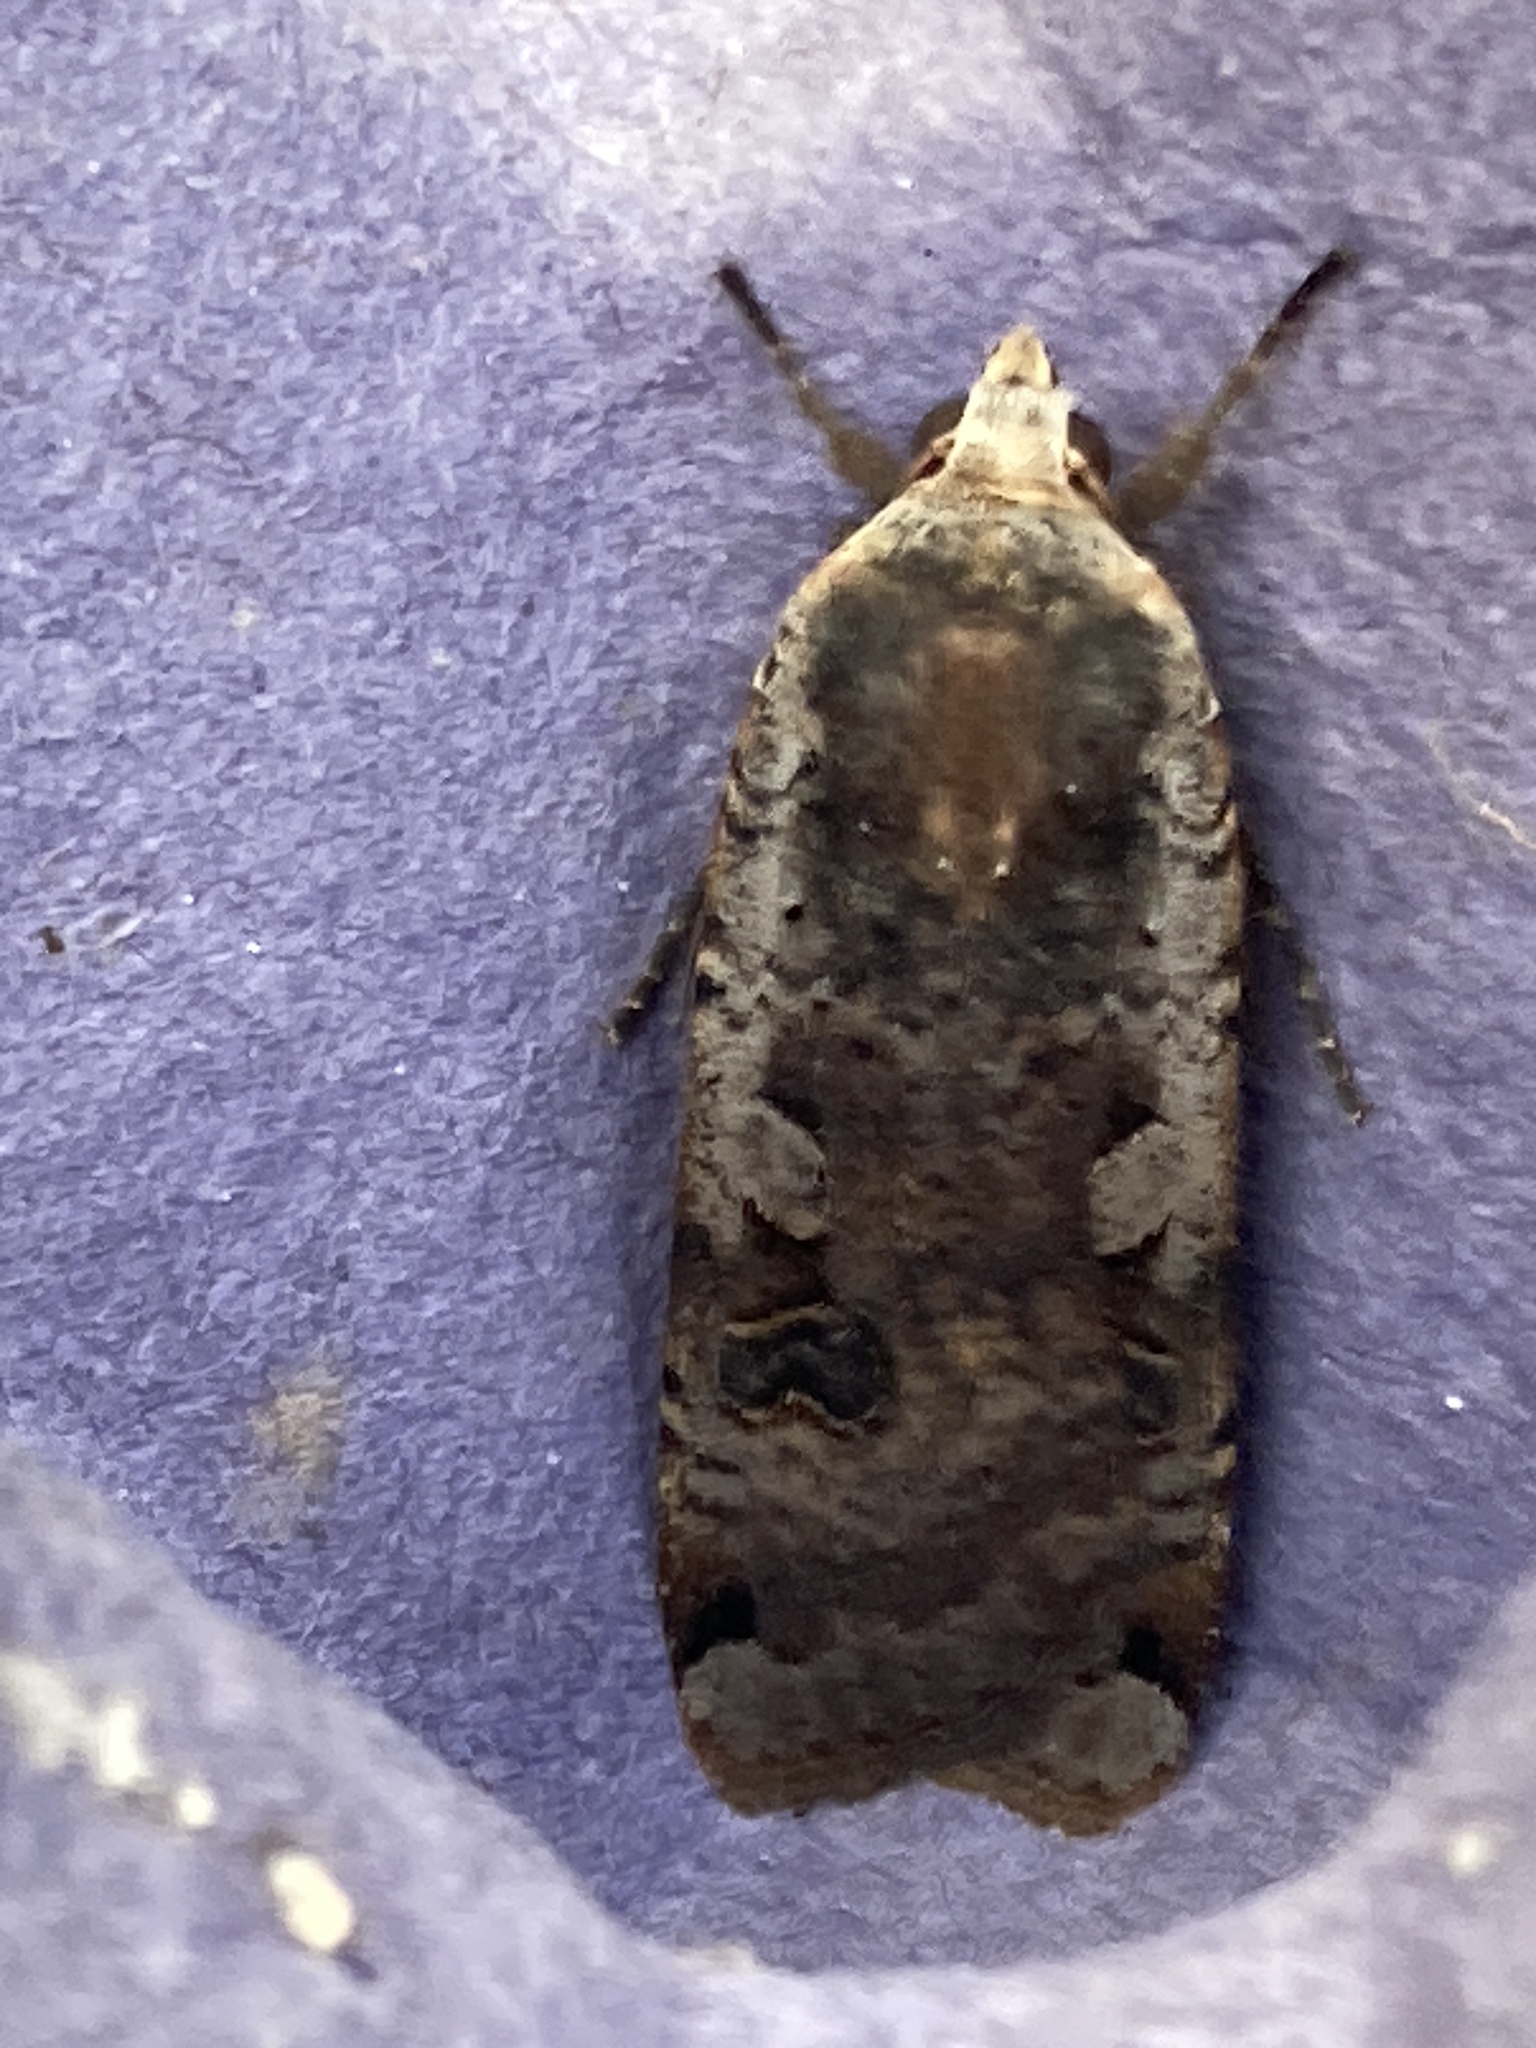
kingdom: Animalia
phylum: Arthropoda
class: Insecta
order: Lepidoptera
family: Noctuidae
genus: Noctua
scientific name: Noctua pronuba
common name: Large yellow underwing
